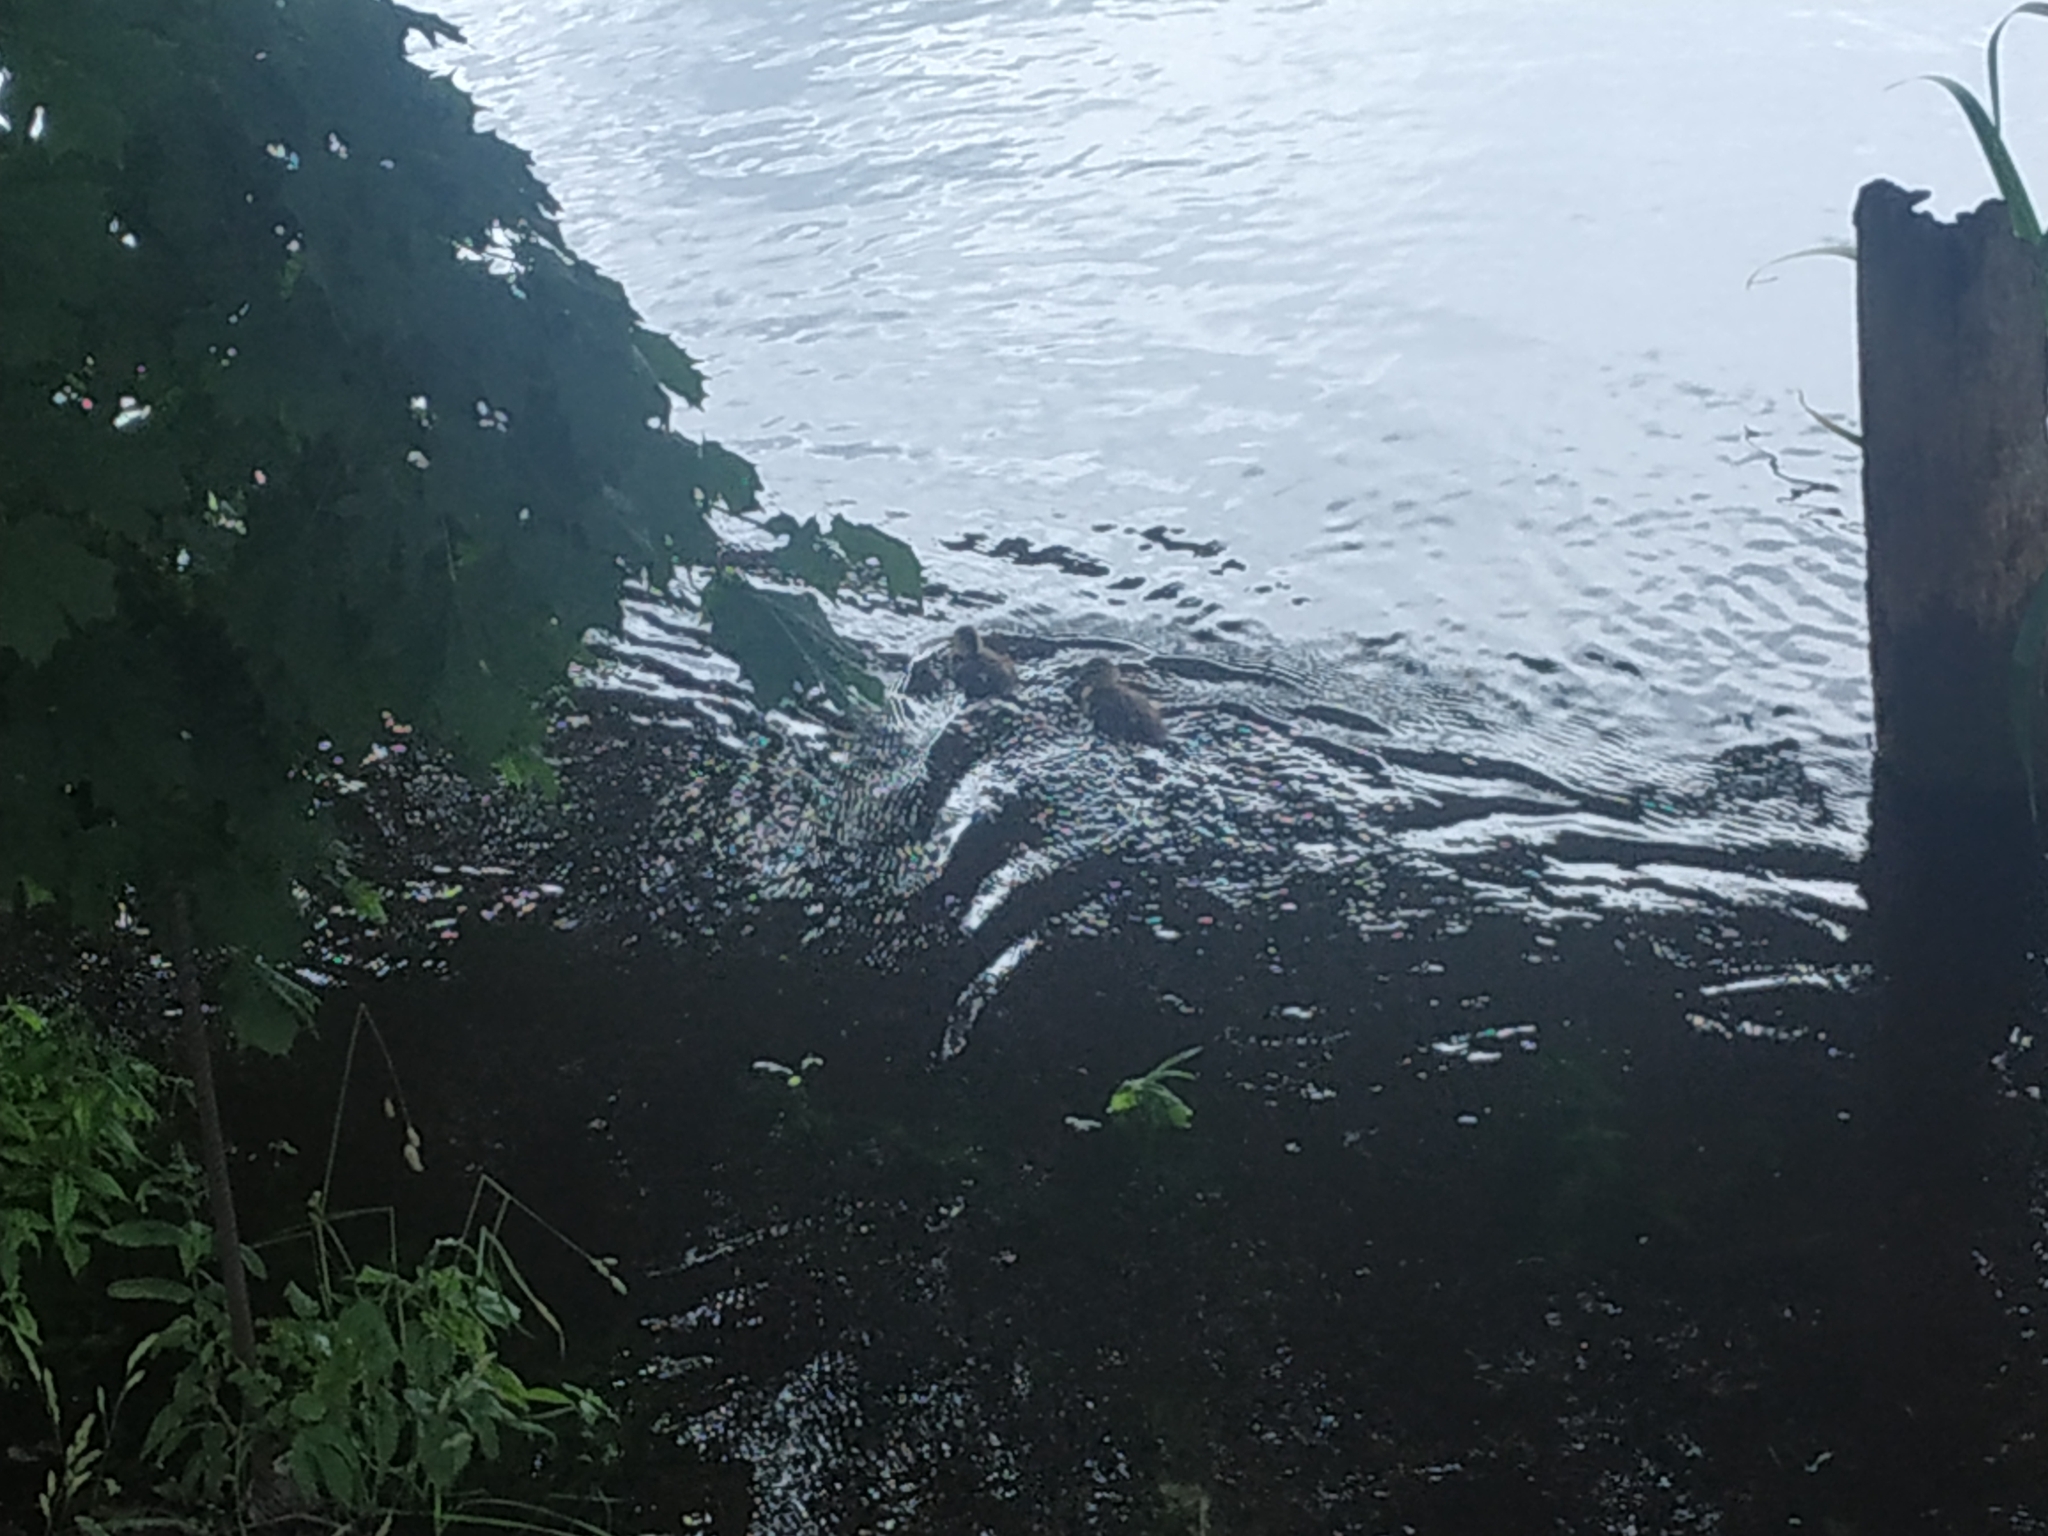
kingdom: Animalia
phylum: Chordata
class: Aves
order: Anseriformes
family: Anatidae
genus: Anas
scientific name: Anas platyrhynchos
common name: Mallard
